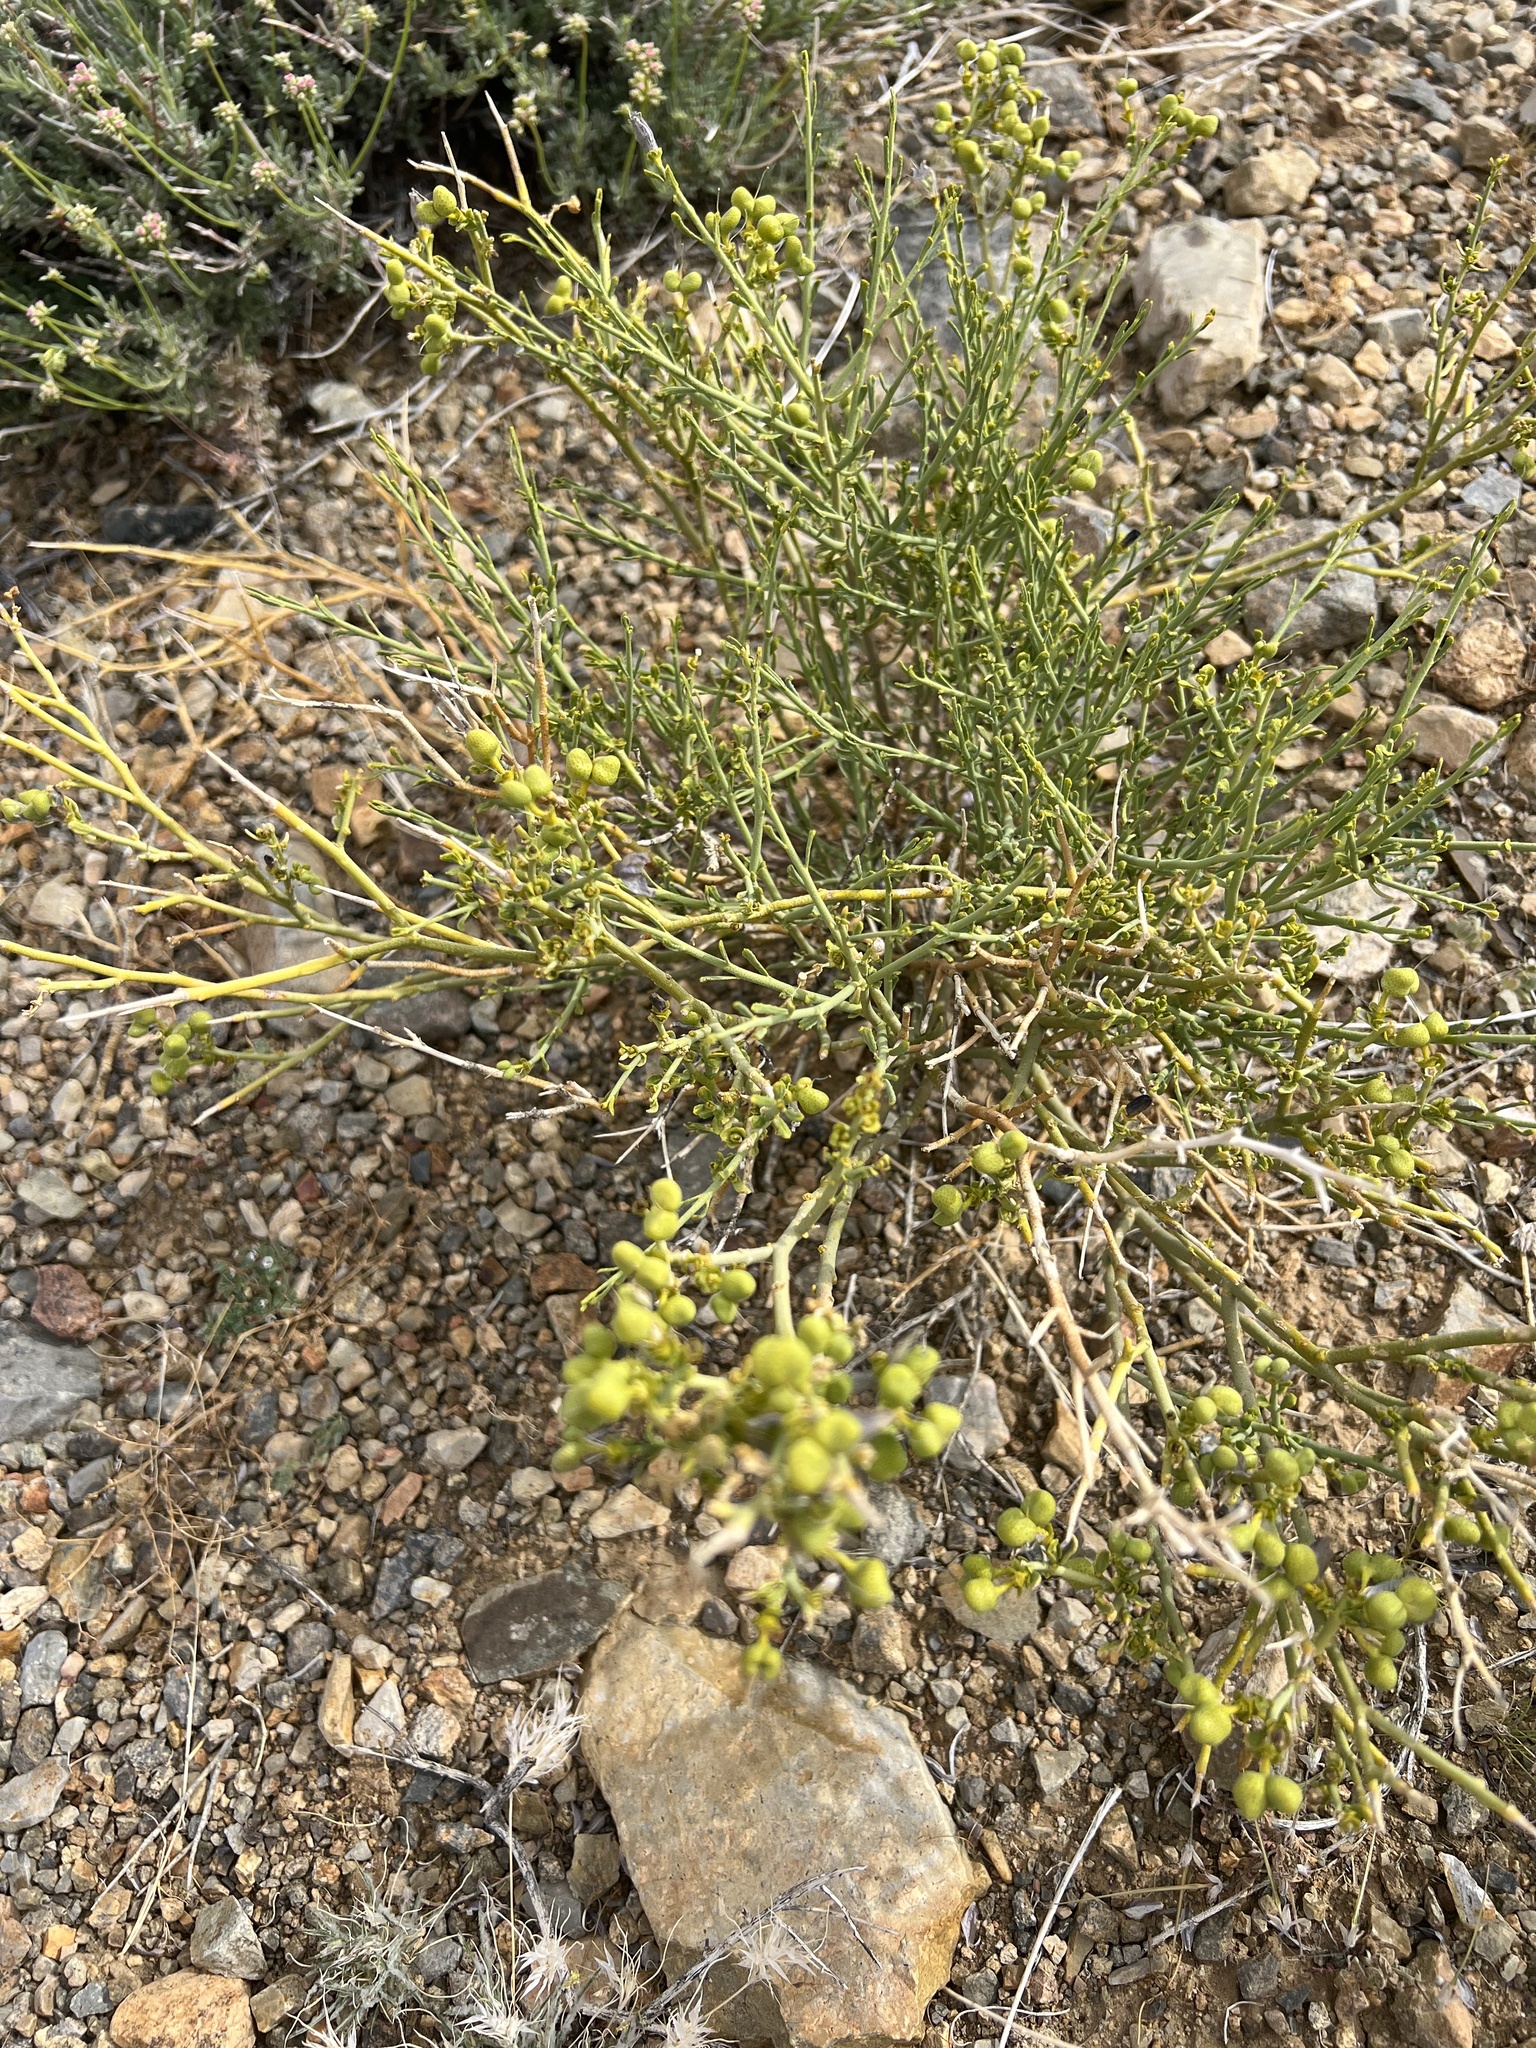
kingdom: Plantae
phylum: Tracheophyta
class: Magnoliopsida
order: Sapindales
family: Rutaceae
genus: Thamnosma
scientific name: Thamnosma montana
